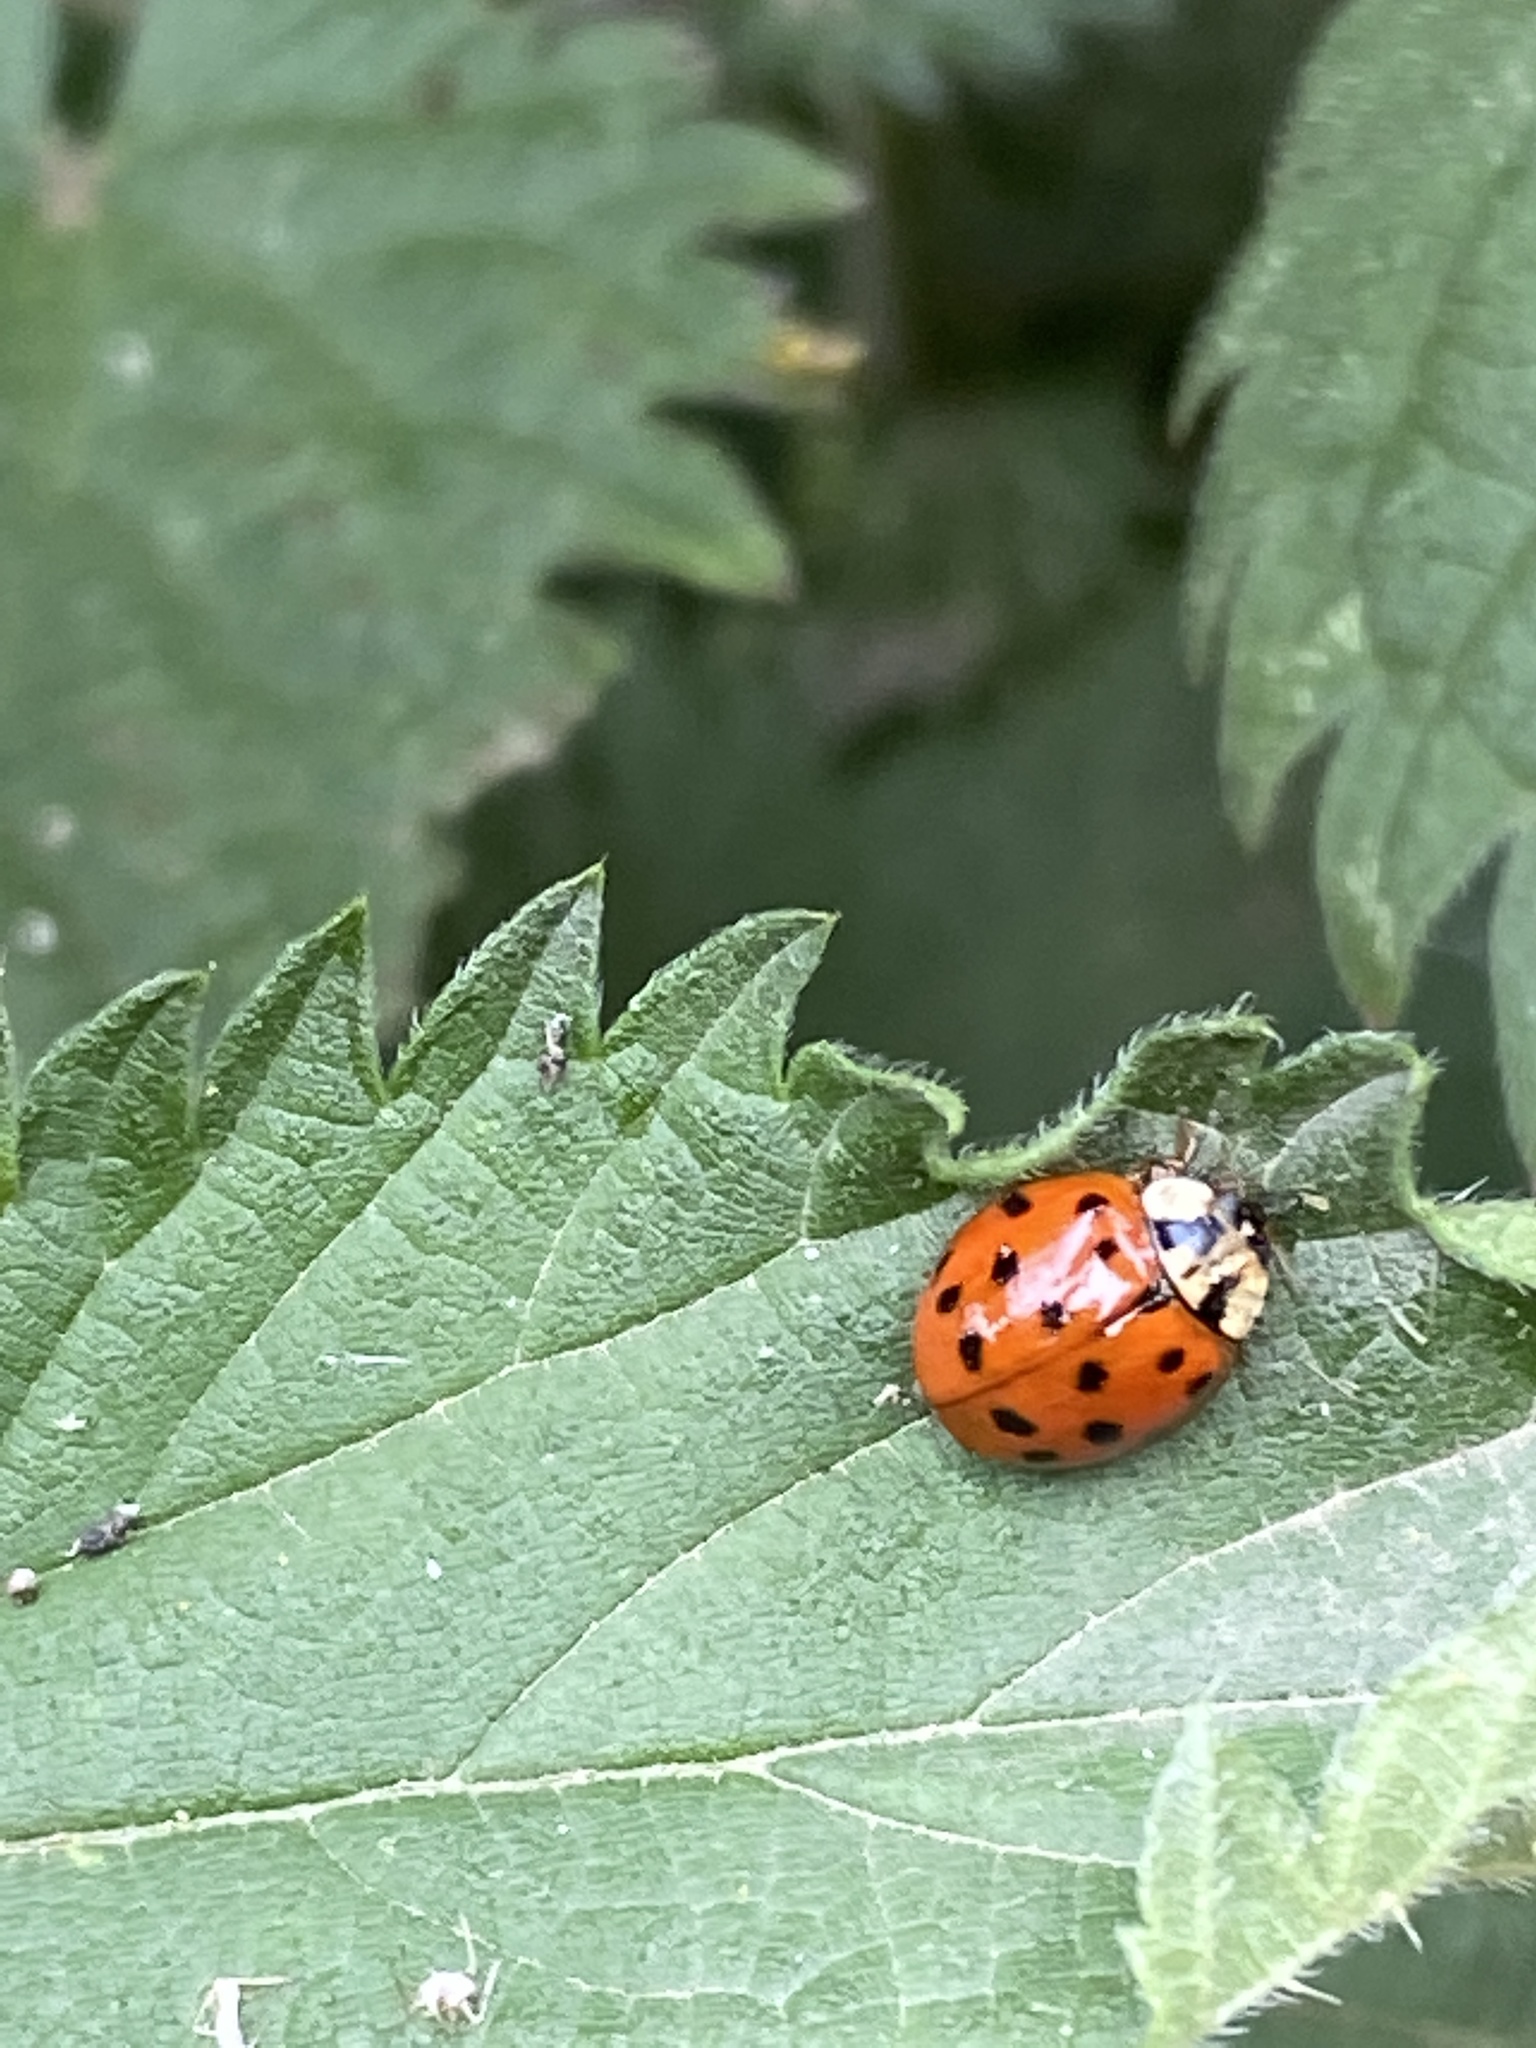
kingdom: Animalia
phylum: Arthropoda
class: Insecta
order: Coleoptera
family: Coccinellidae
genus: Harmonia
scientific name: Harmonia axyridis
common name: Harlequin ladybird
